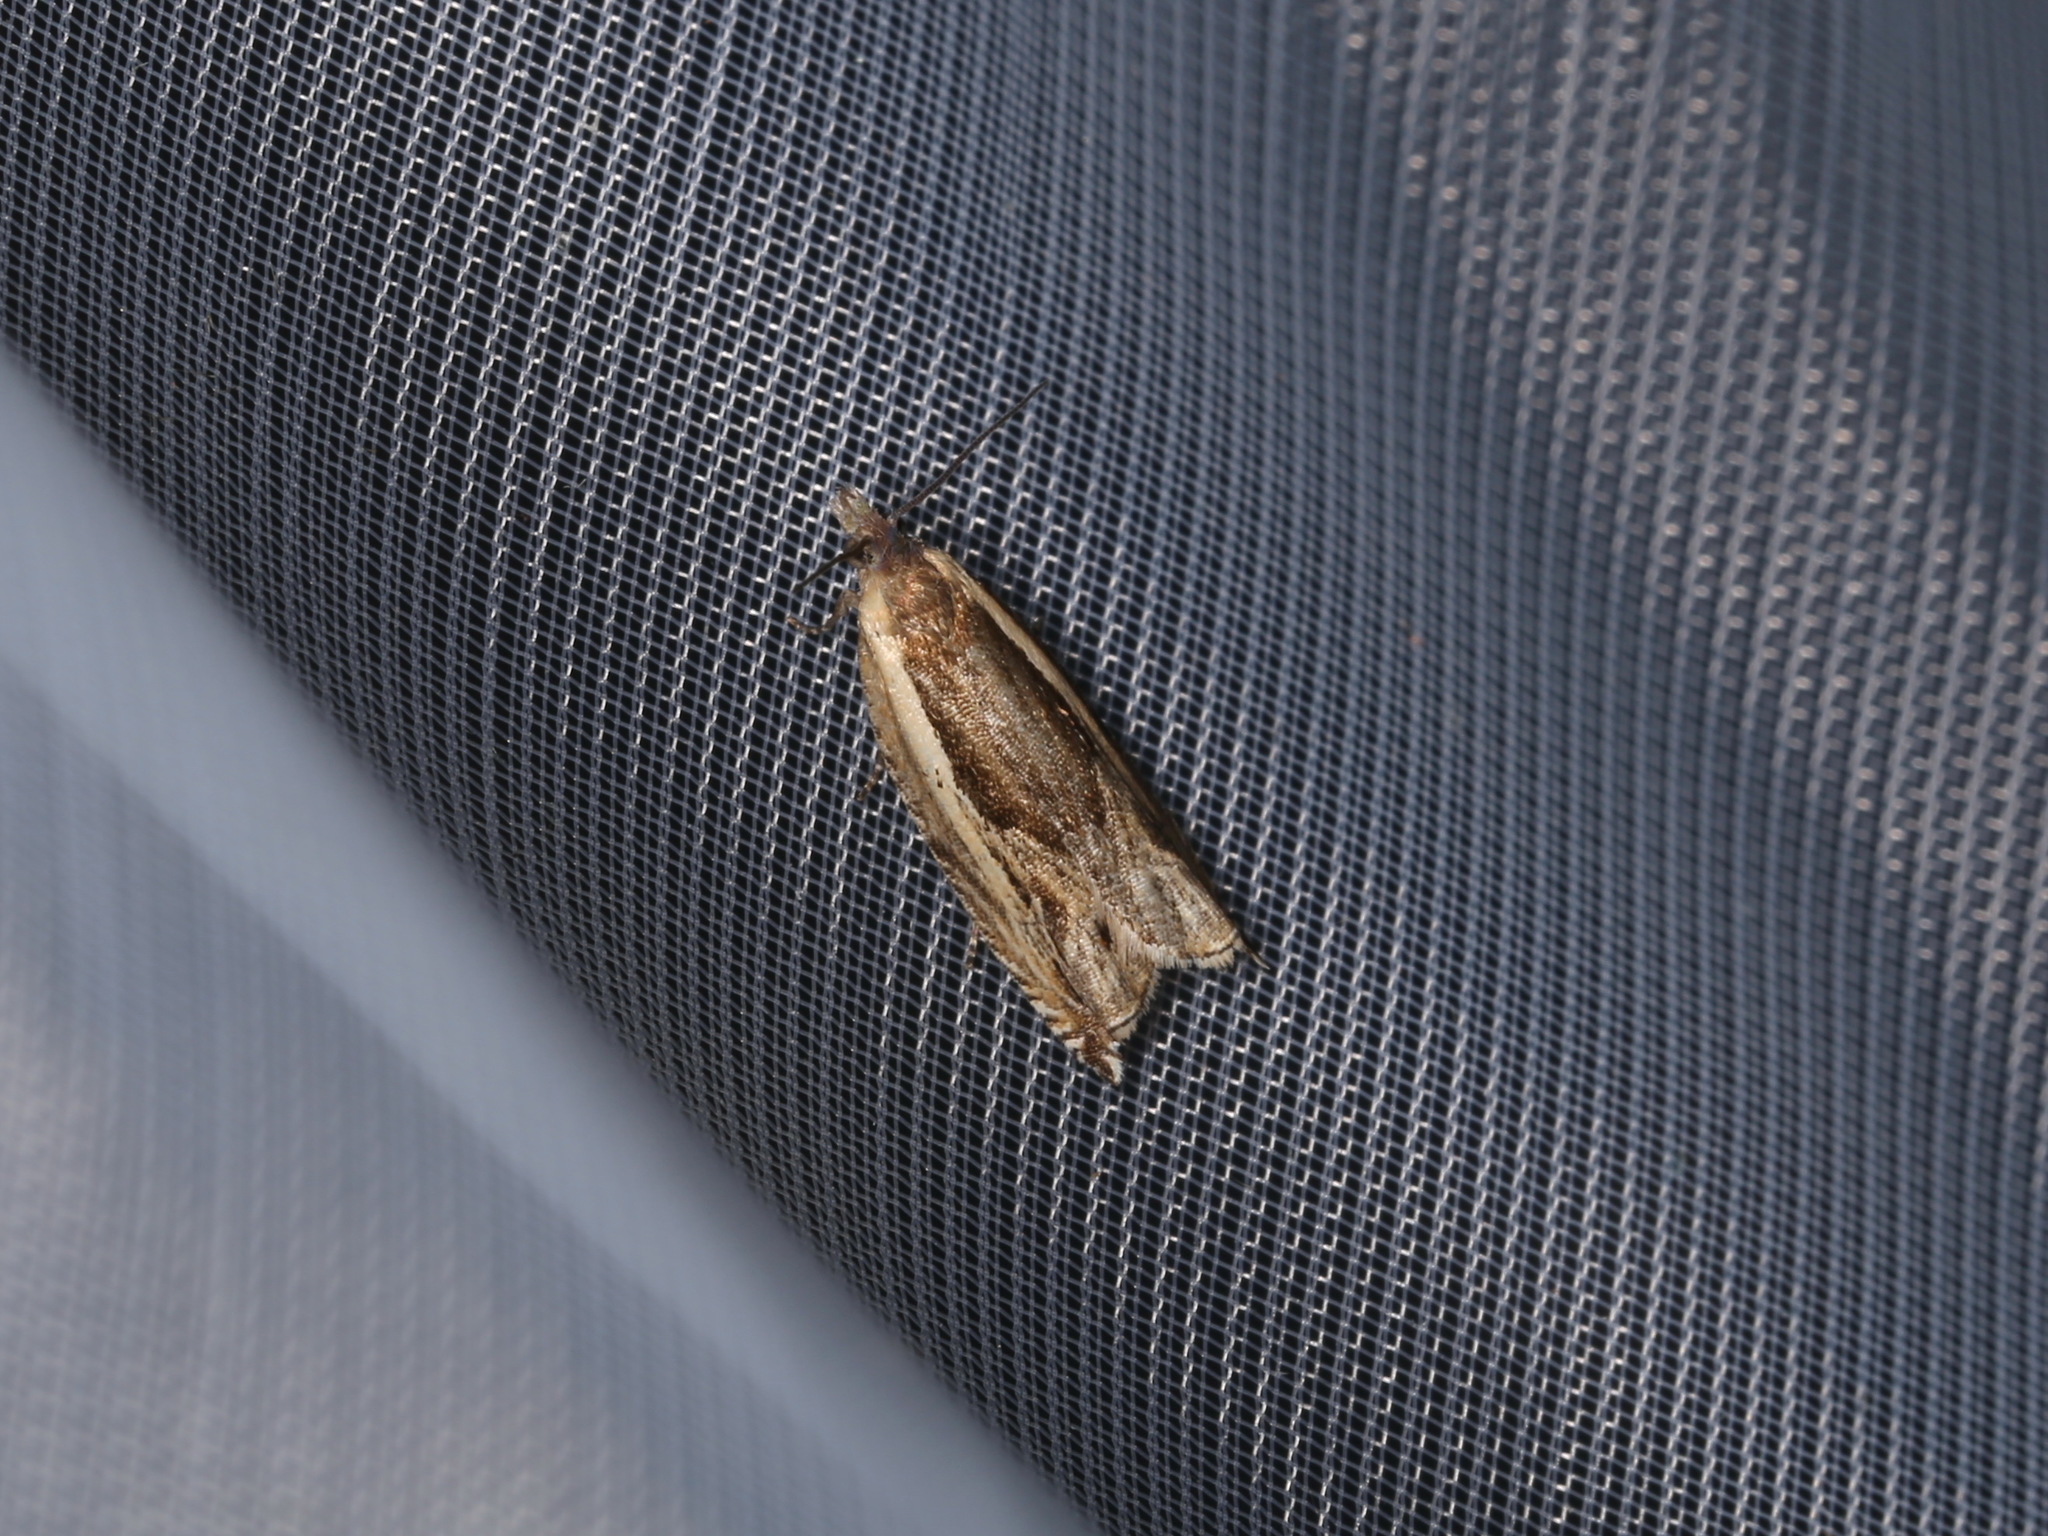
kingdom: Animalia
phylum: Arthropoda
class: Insecta
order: Lepidoptera
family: Tortricidae
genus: Ancylis
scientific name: Ancylis apicella
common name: Hook-tipped roller
